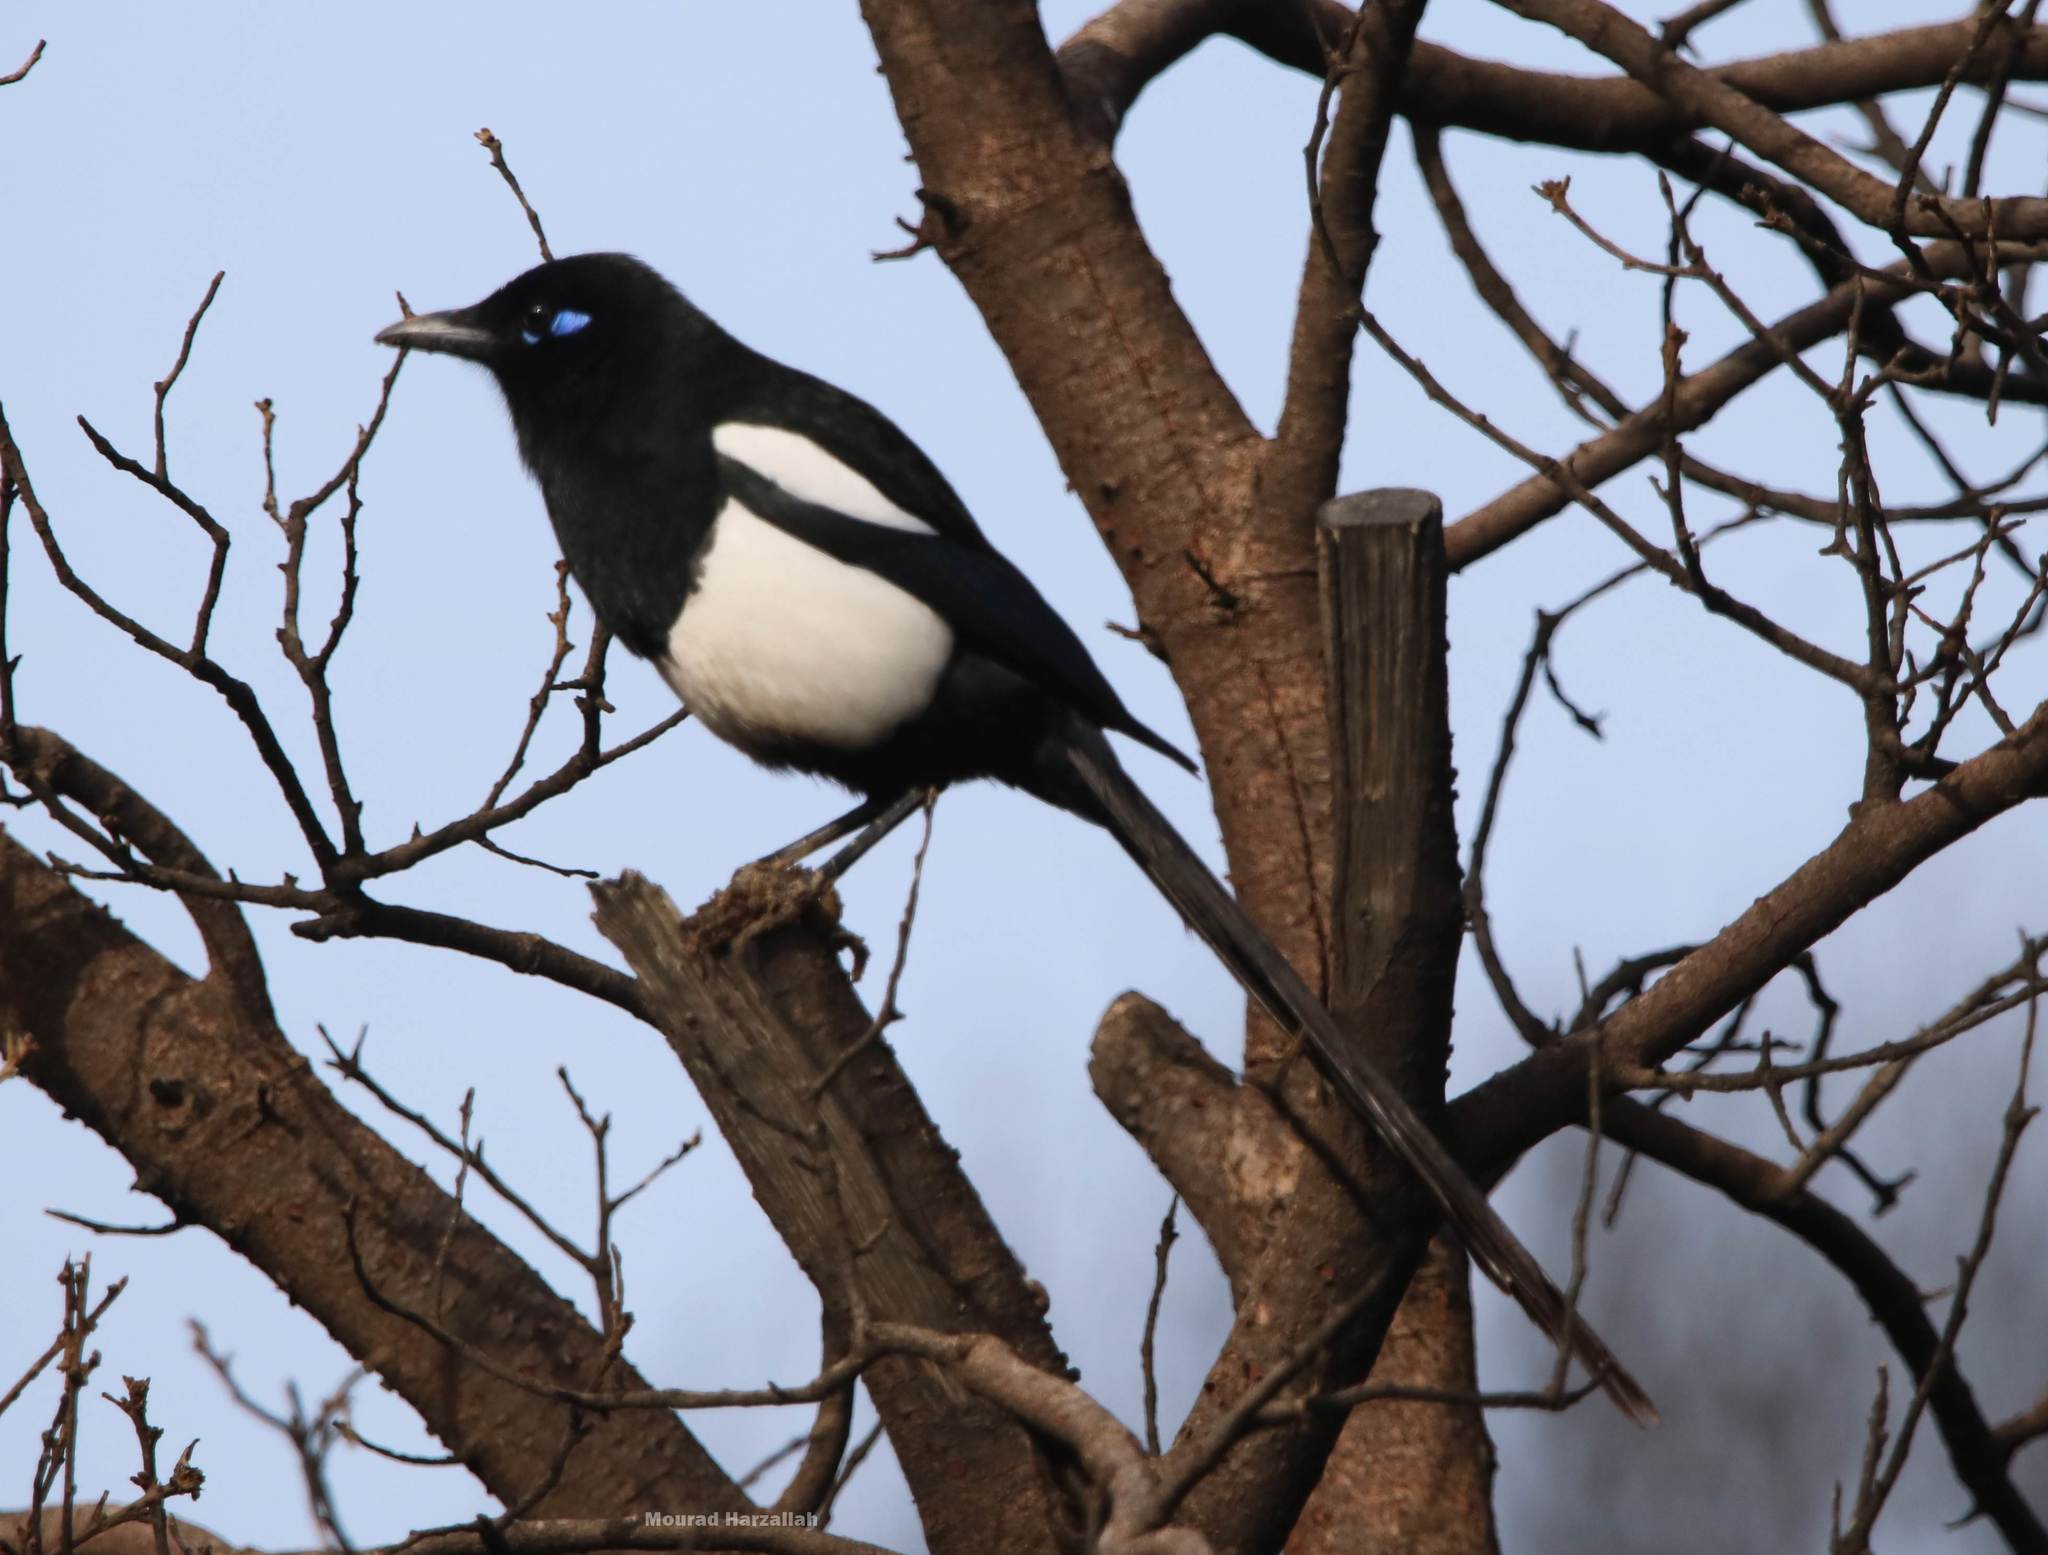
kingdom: Animalia
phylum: Chordata
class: Aves
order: Passeriformes
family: Corvidae
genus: Pica
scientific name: Pica mauritanica
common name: Maghreb magpie
